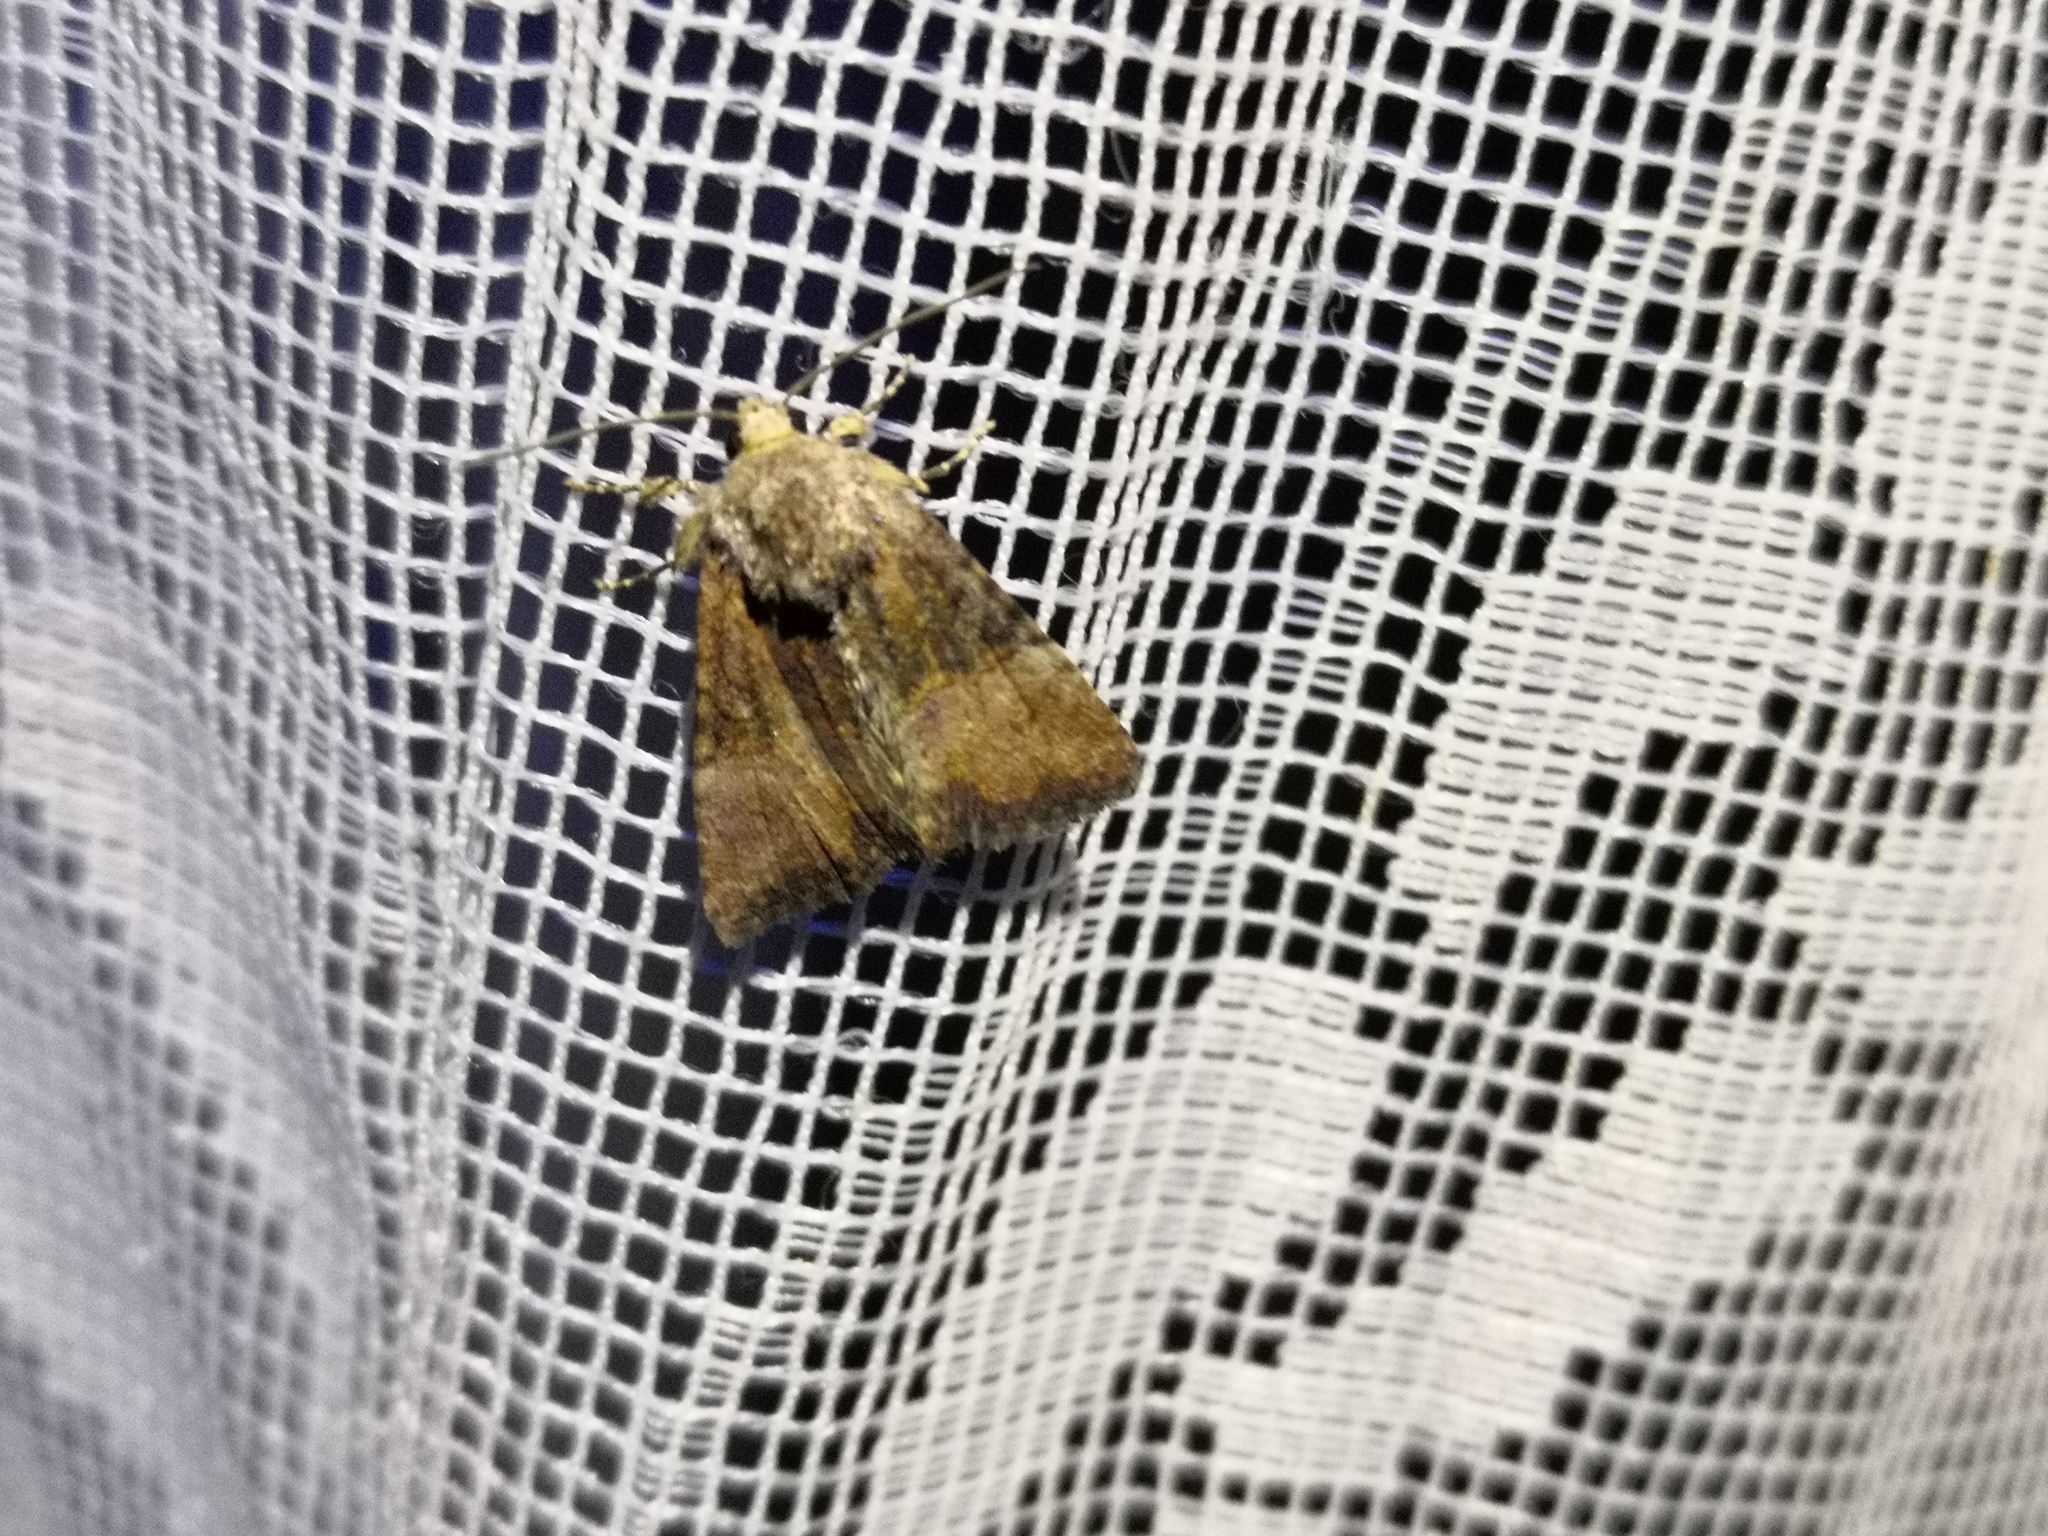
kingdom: Animalia
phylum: Arthropoda
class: Insecta
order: Lepidoptera
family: Noctuidae
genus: Mesoligia
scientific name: Mesoligia furuncula
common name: Cloaked minor
